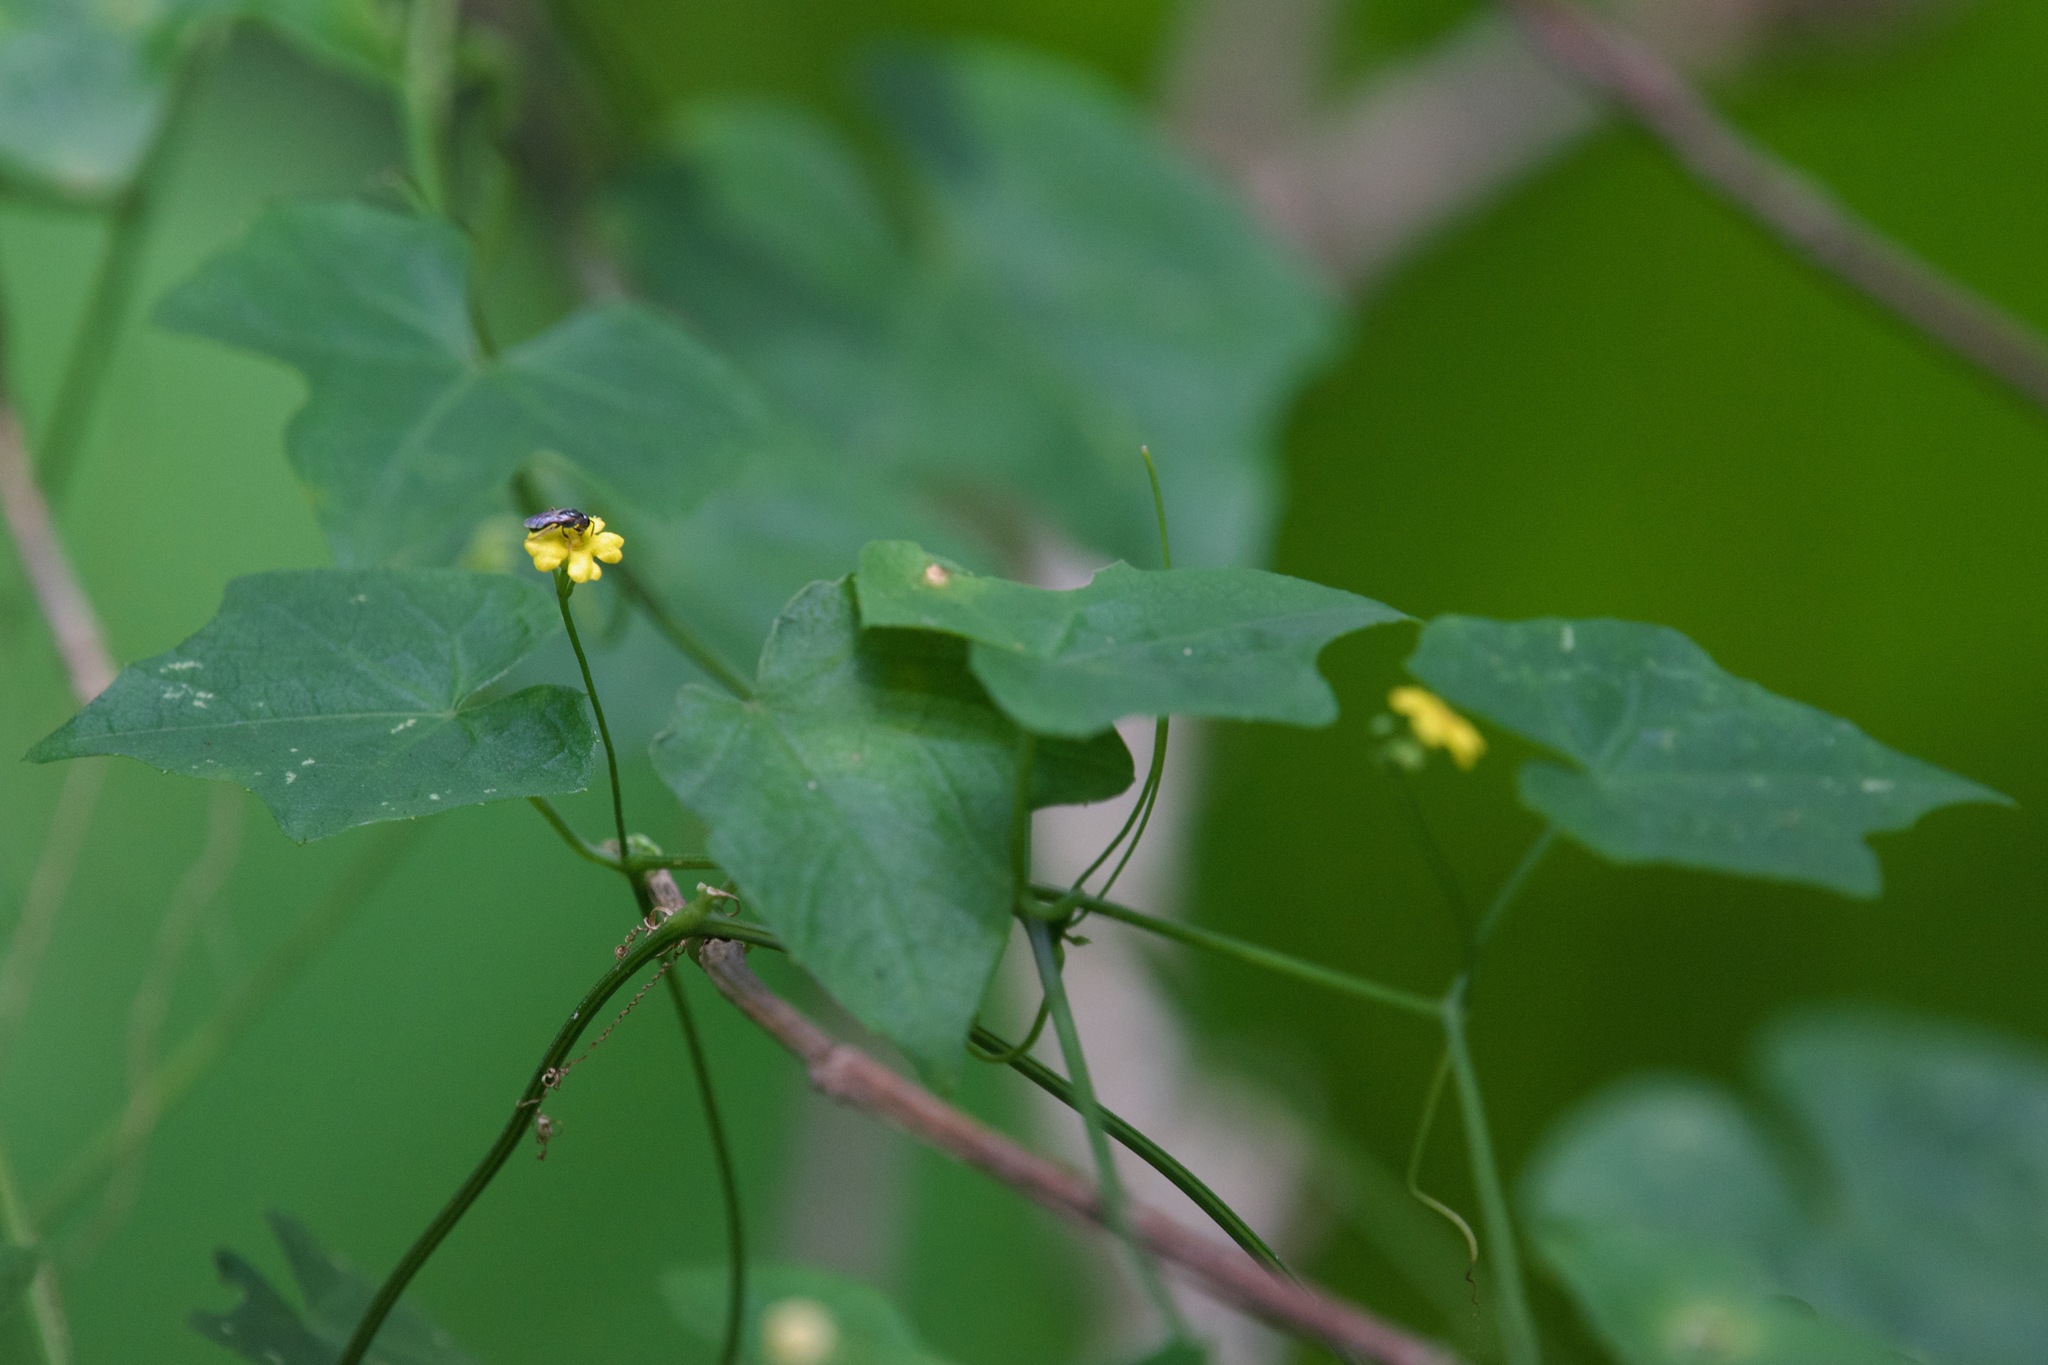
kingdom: Plantae
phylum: Tracheophyta
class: Magnoliopsida
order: Cucurbitales
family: Cucurbitaceae
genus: Melothria
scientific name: Melothria pendula
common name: Creeping-cucumber
